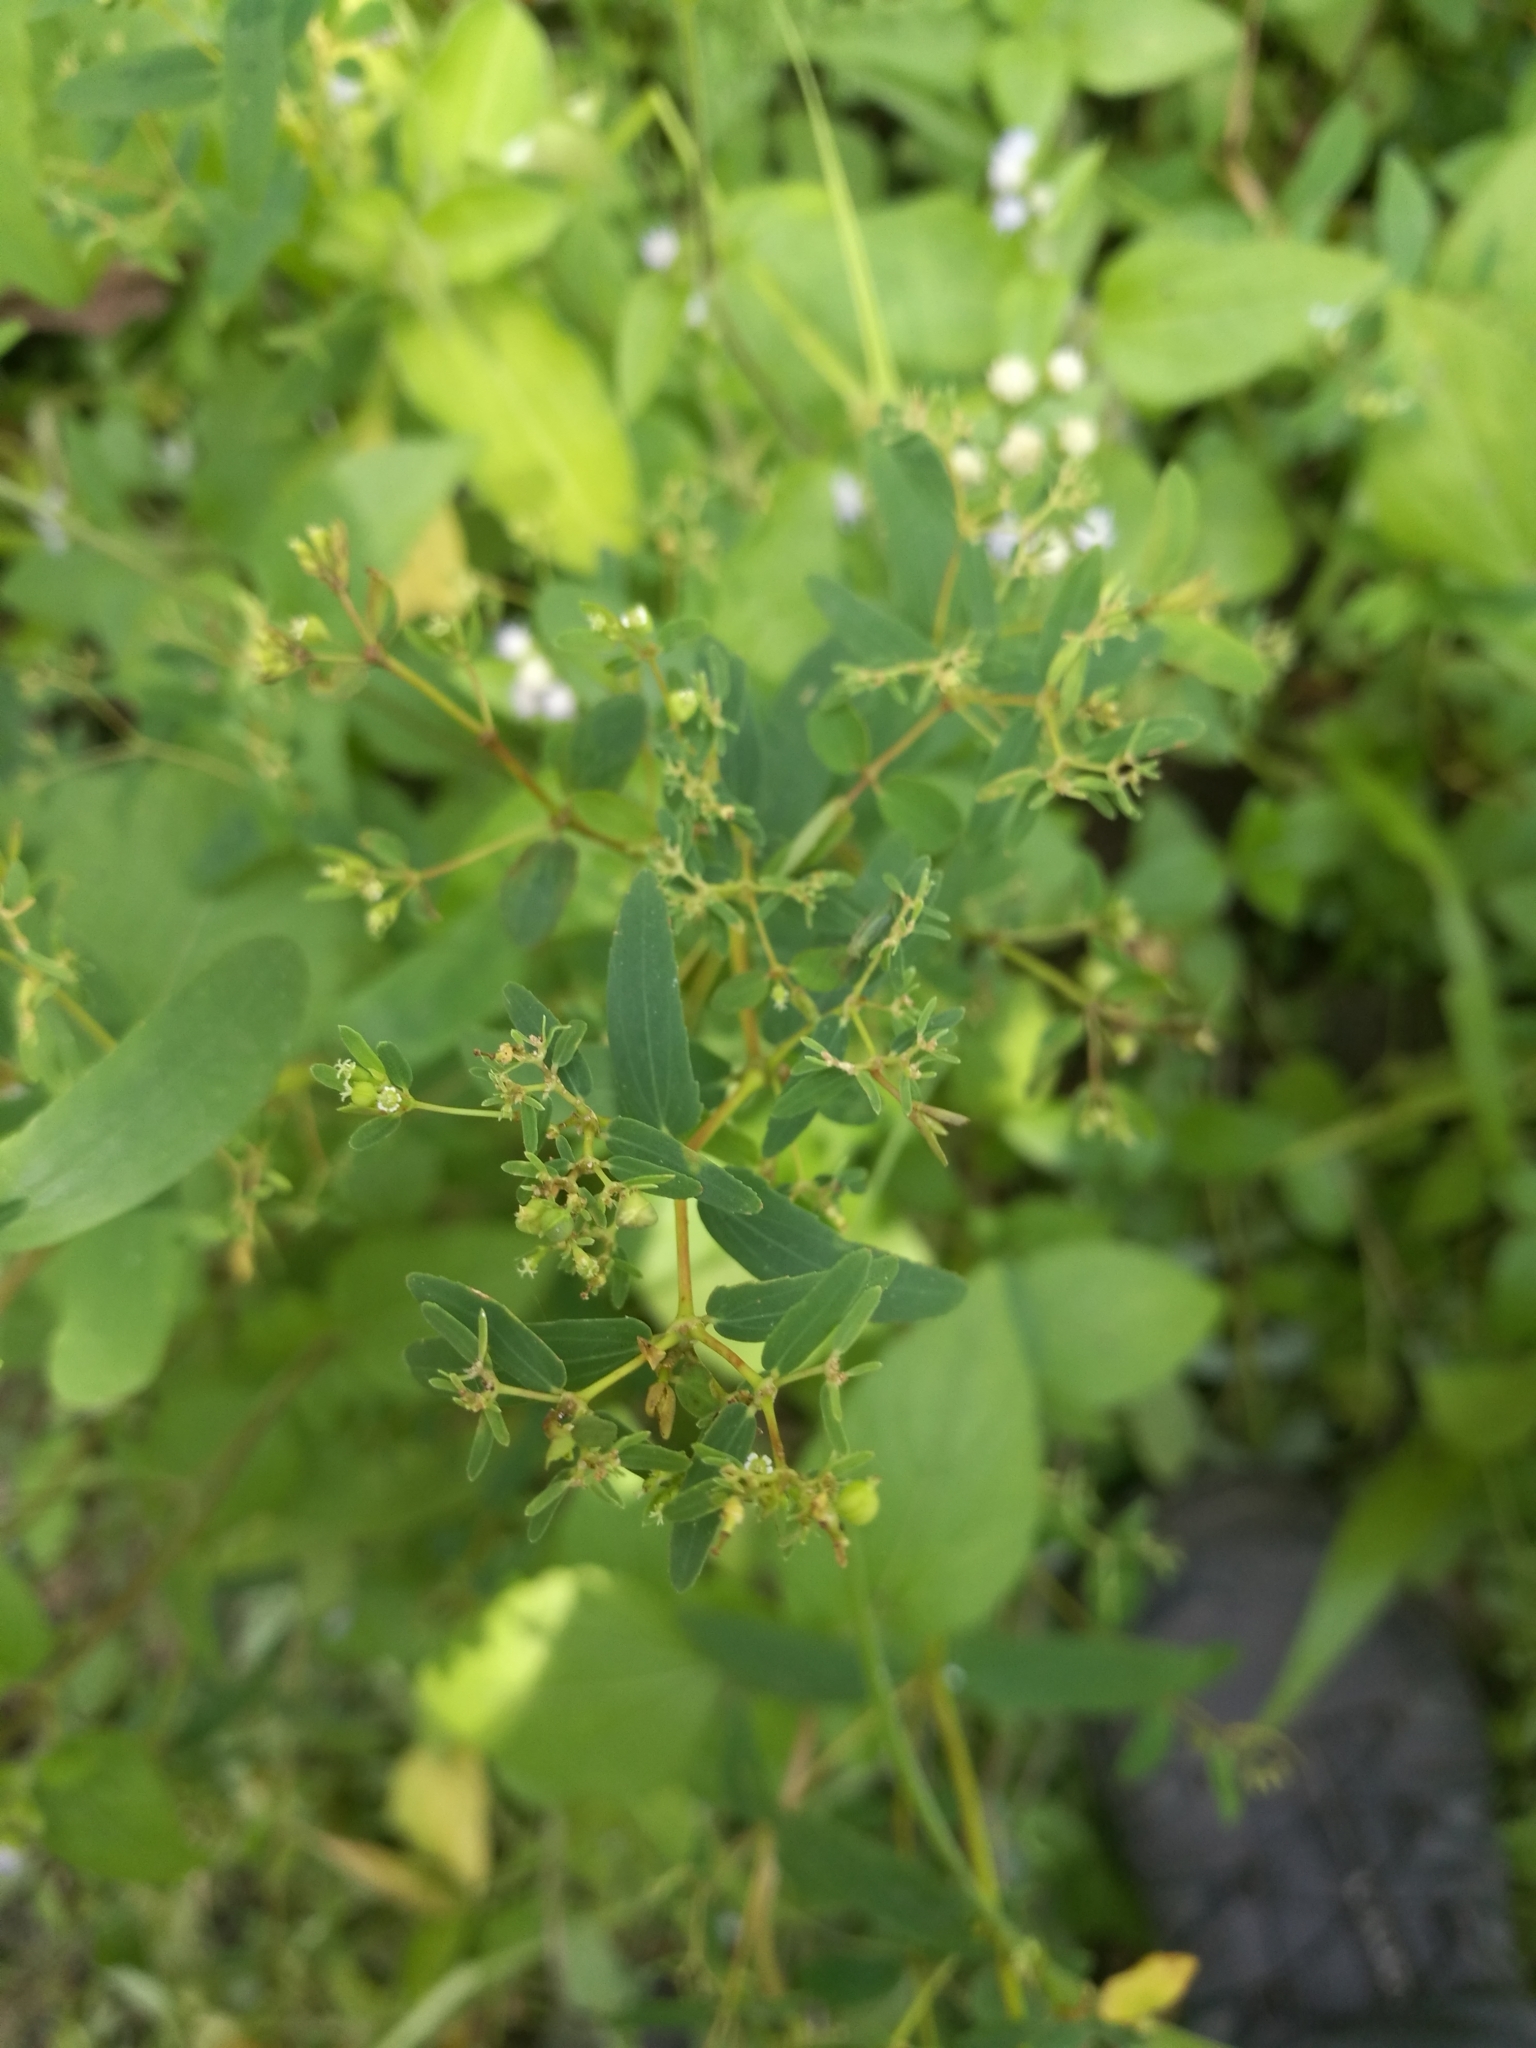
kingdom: Plantae
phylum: Tracheophyta
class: Magnoliopsida
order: Malpighiales
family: Euphorbiaceae
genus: Euphorbia
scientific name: Euphorbia hyssopifolia
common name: Hyssopleaf sandmat
